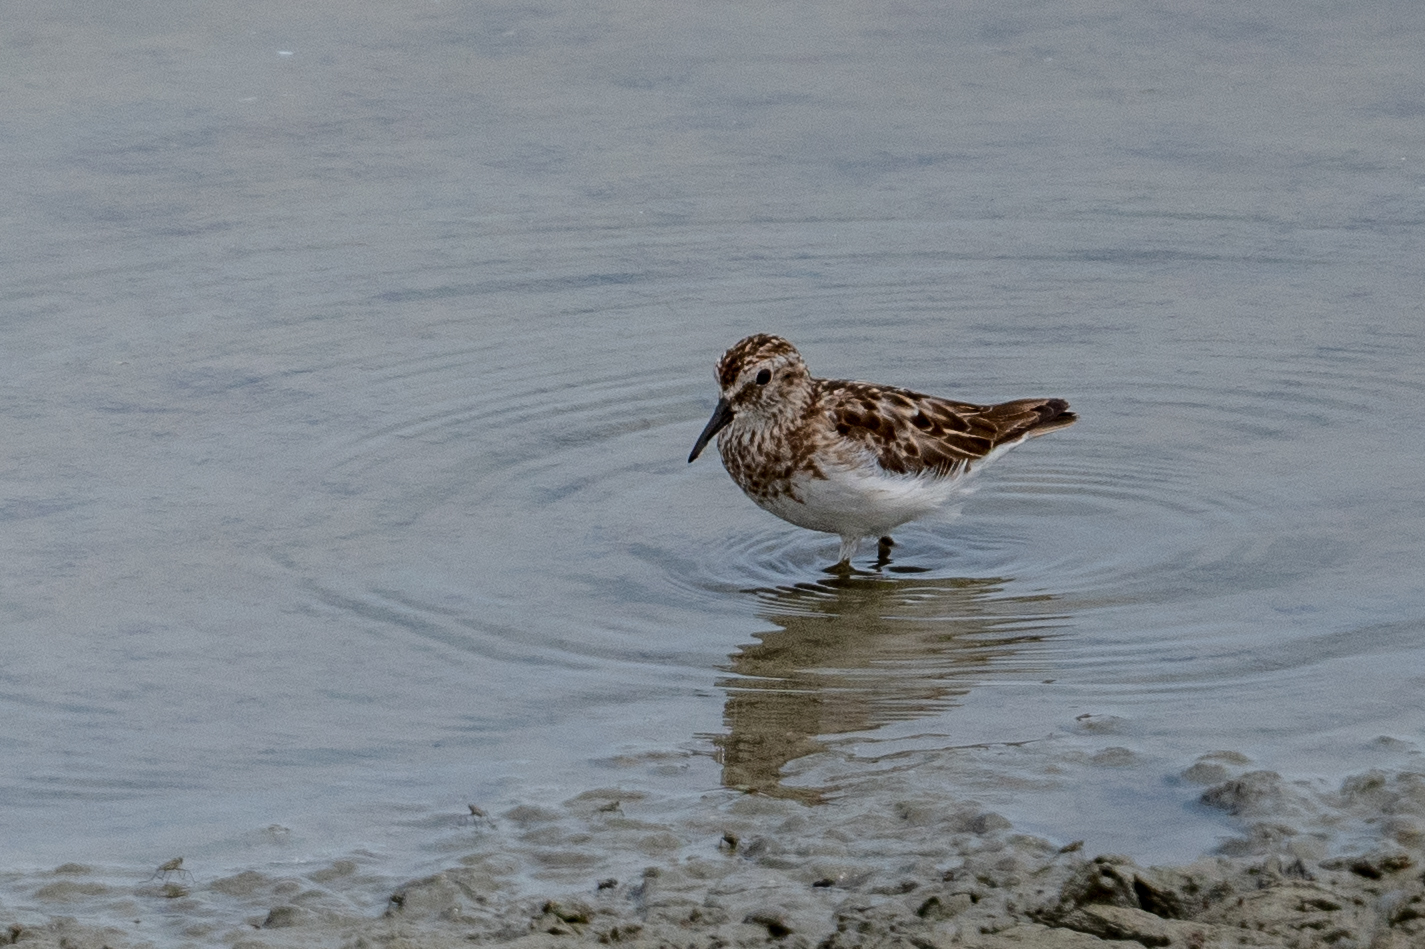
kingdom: Animalia
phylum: Chordata
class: Aves
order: Charadriiformes
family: Scolopacidae
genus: Calidris
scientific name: Calidris minutilla
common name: Least sandpiper
